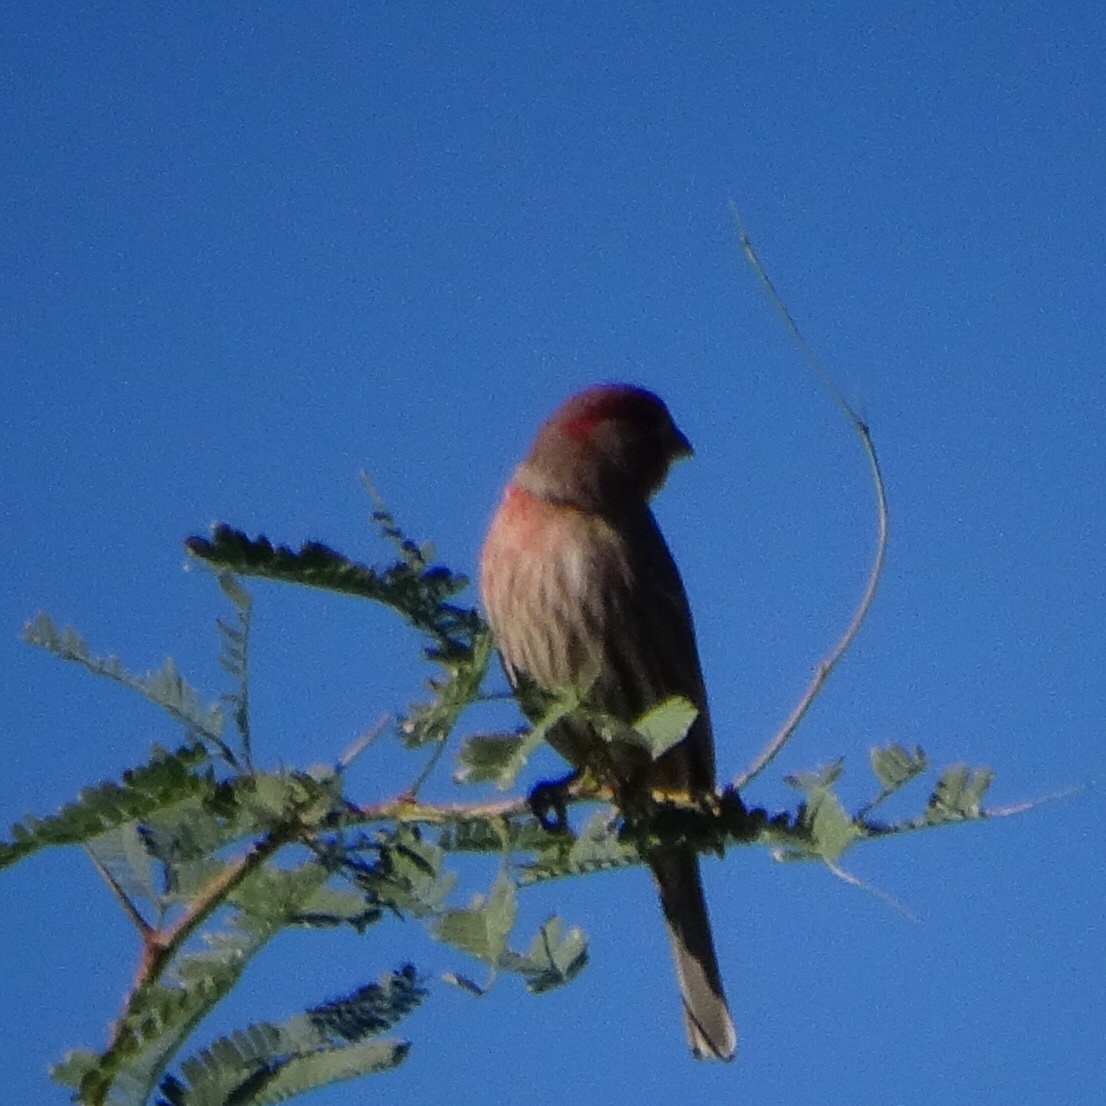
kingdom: Animalia
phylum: Chordata
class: Aves
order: Passeriformes
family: Fringillidae
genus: Haemorhous
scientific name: Haemorhous mexicanus
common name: House finch
